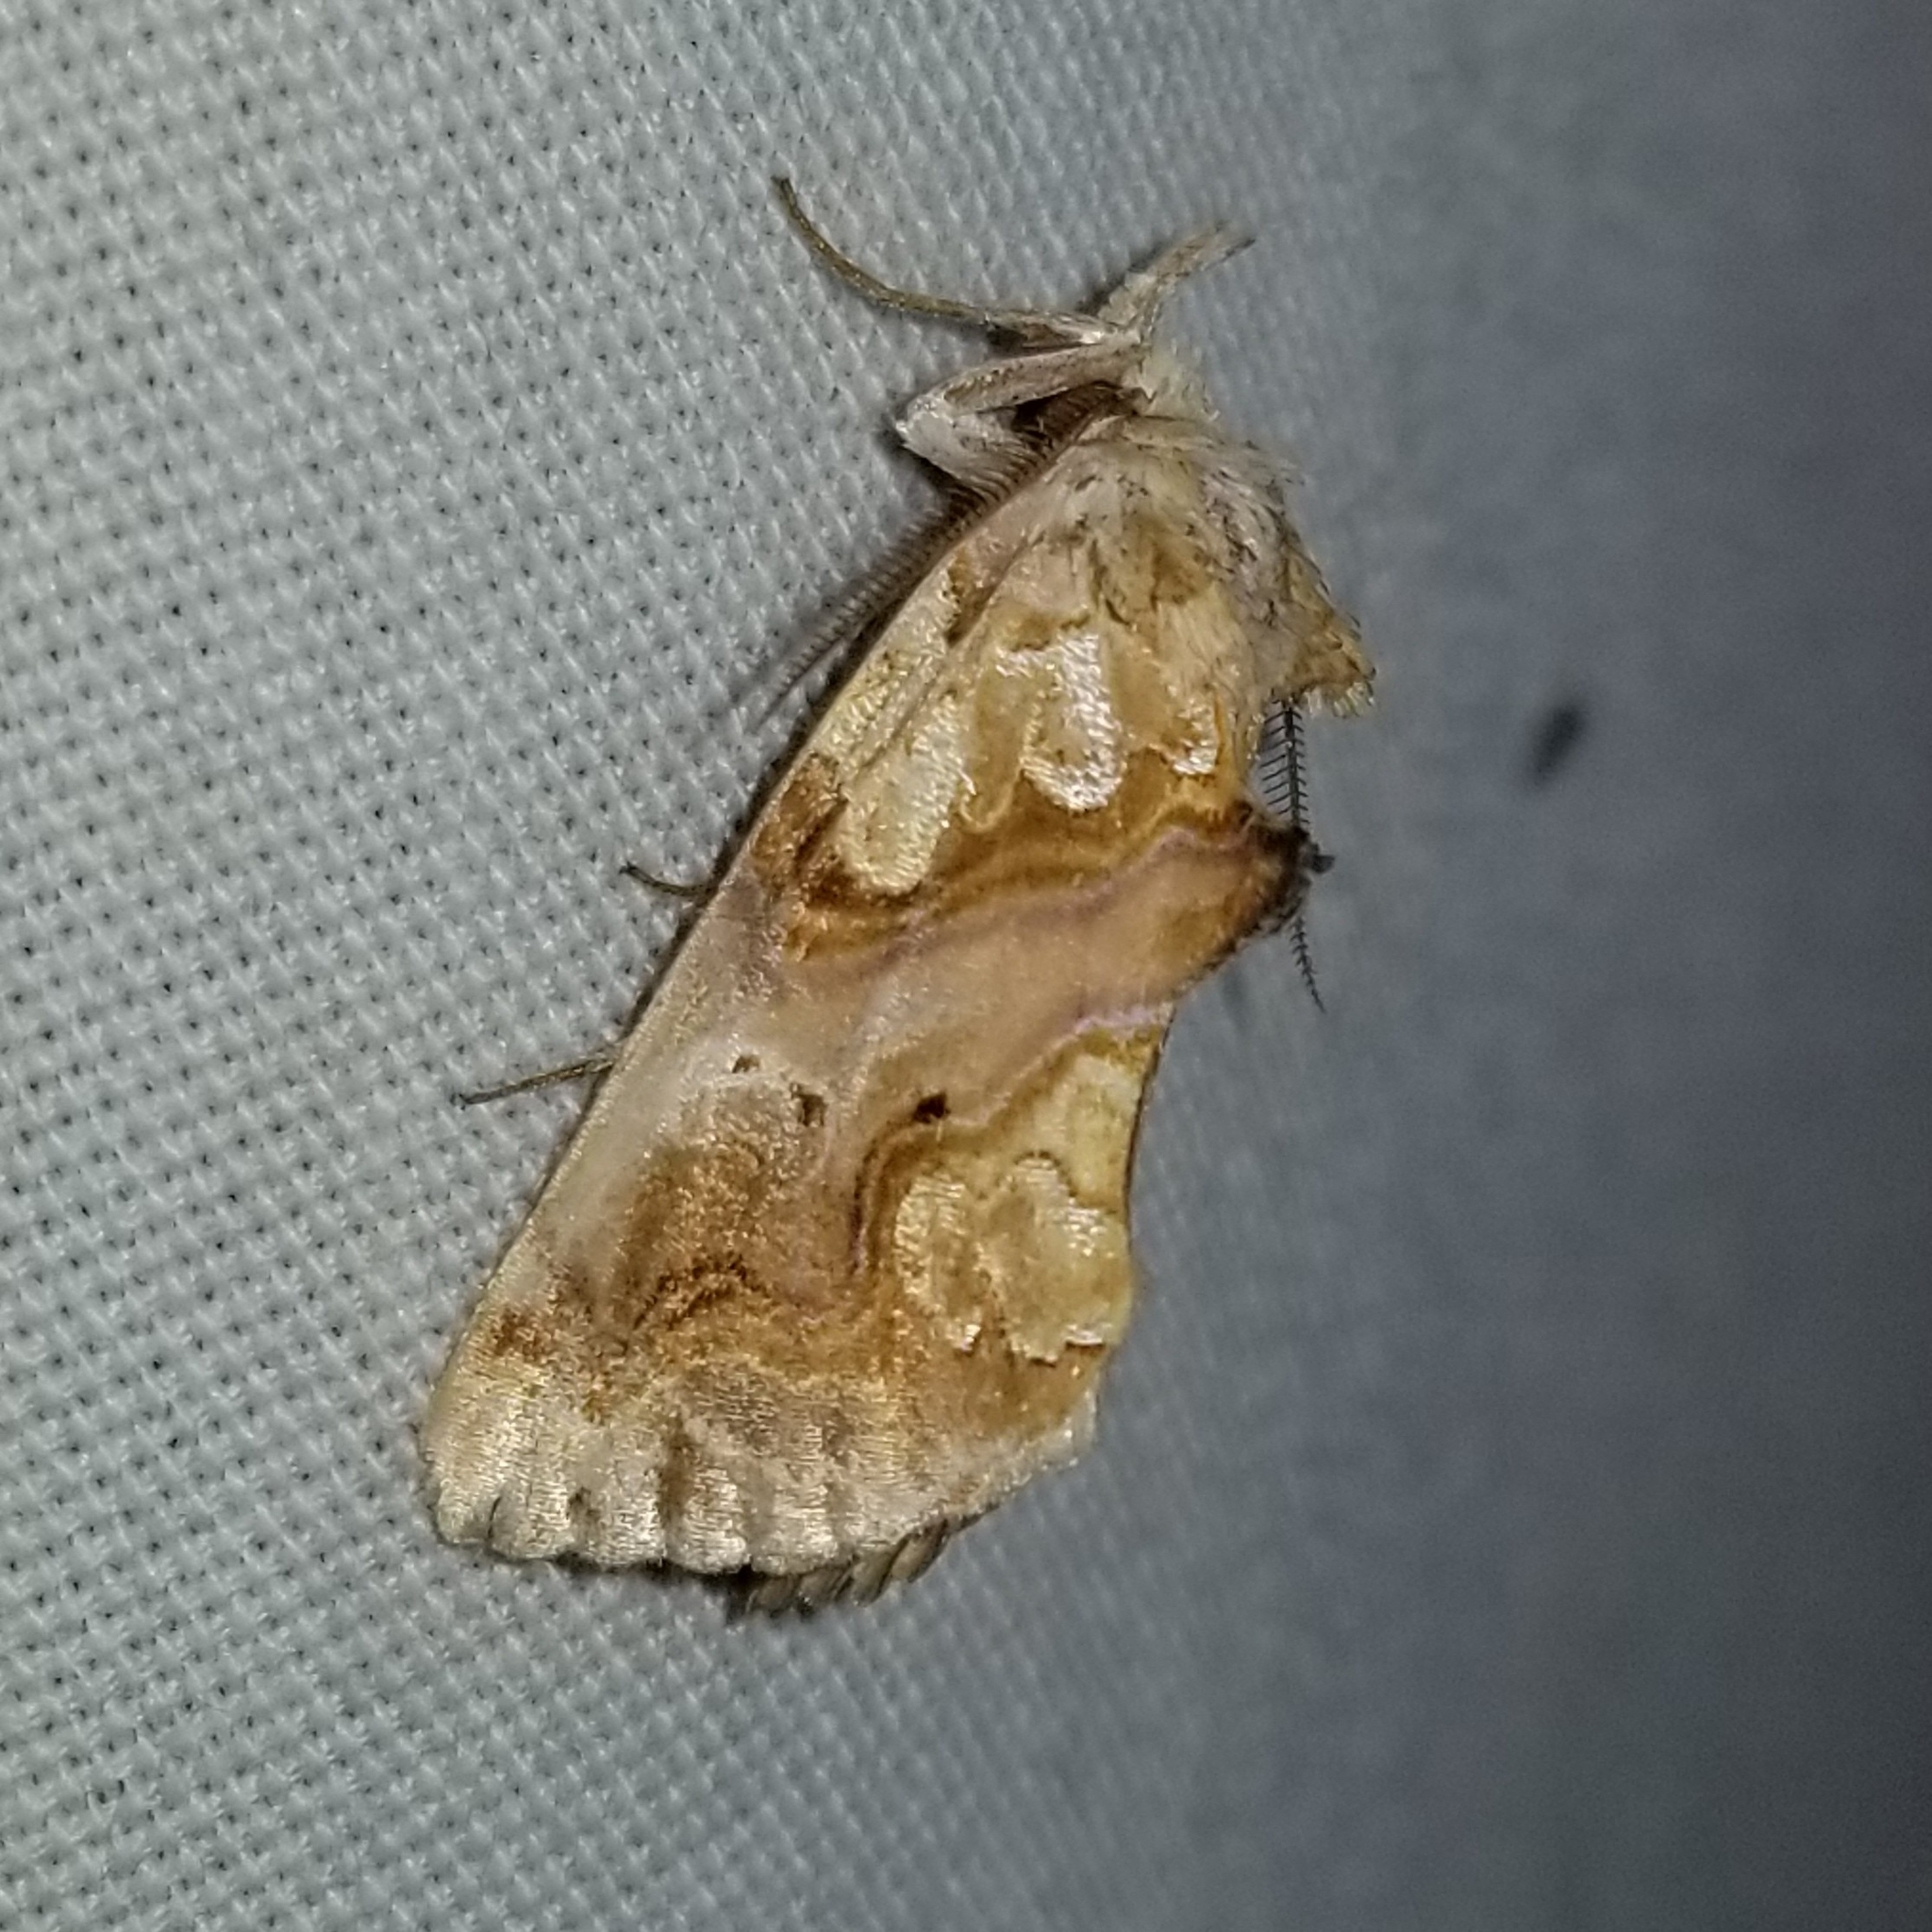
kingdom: Animalia
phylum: Arthropoda
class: Insecta
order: Lepidoptera
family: Erebidae
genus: Plusiodonta
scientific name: Plusiodonta compressipalpis
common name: Moonseed moth
